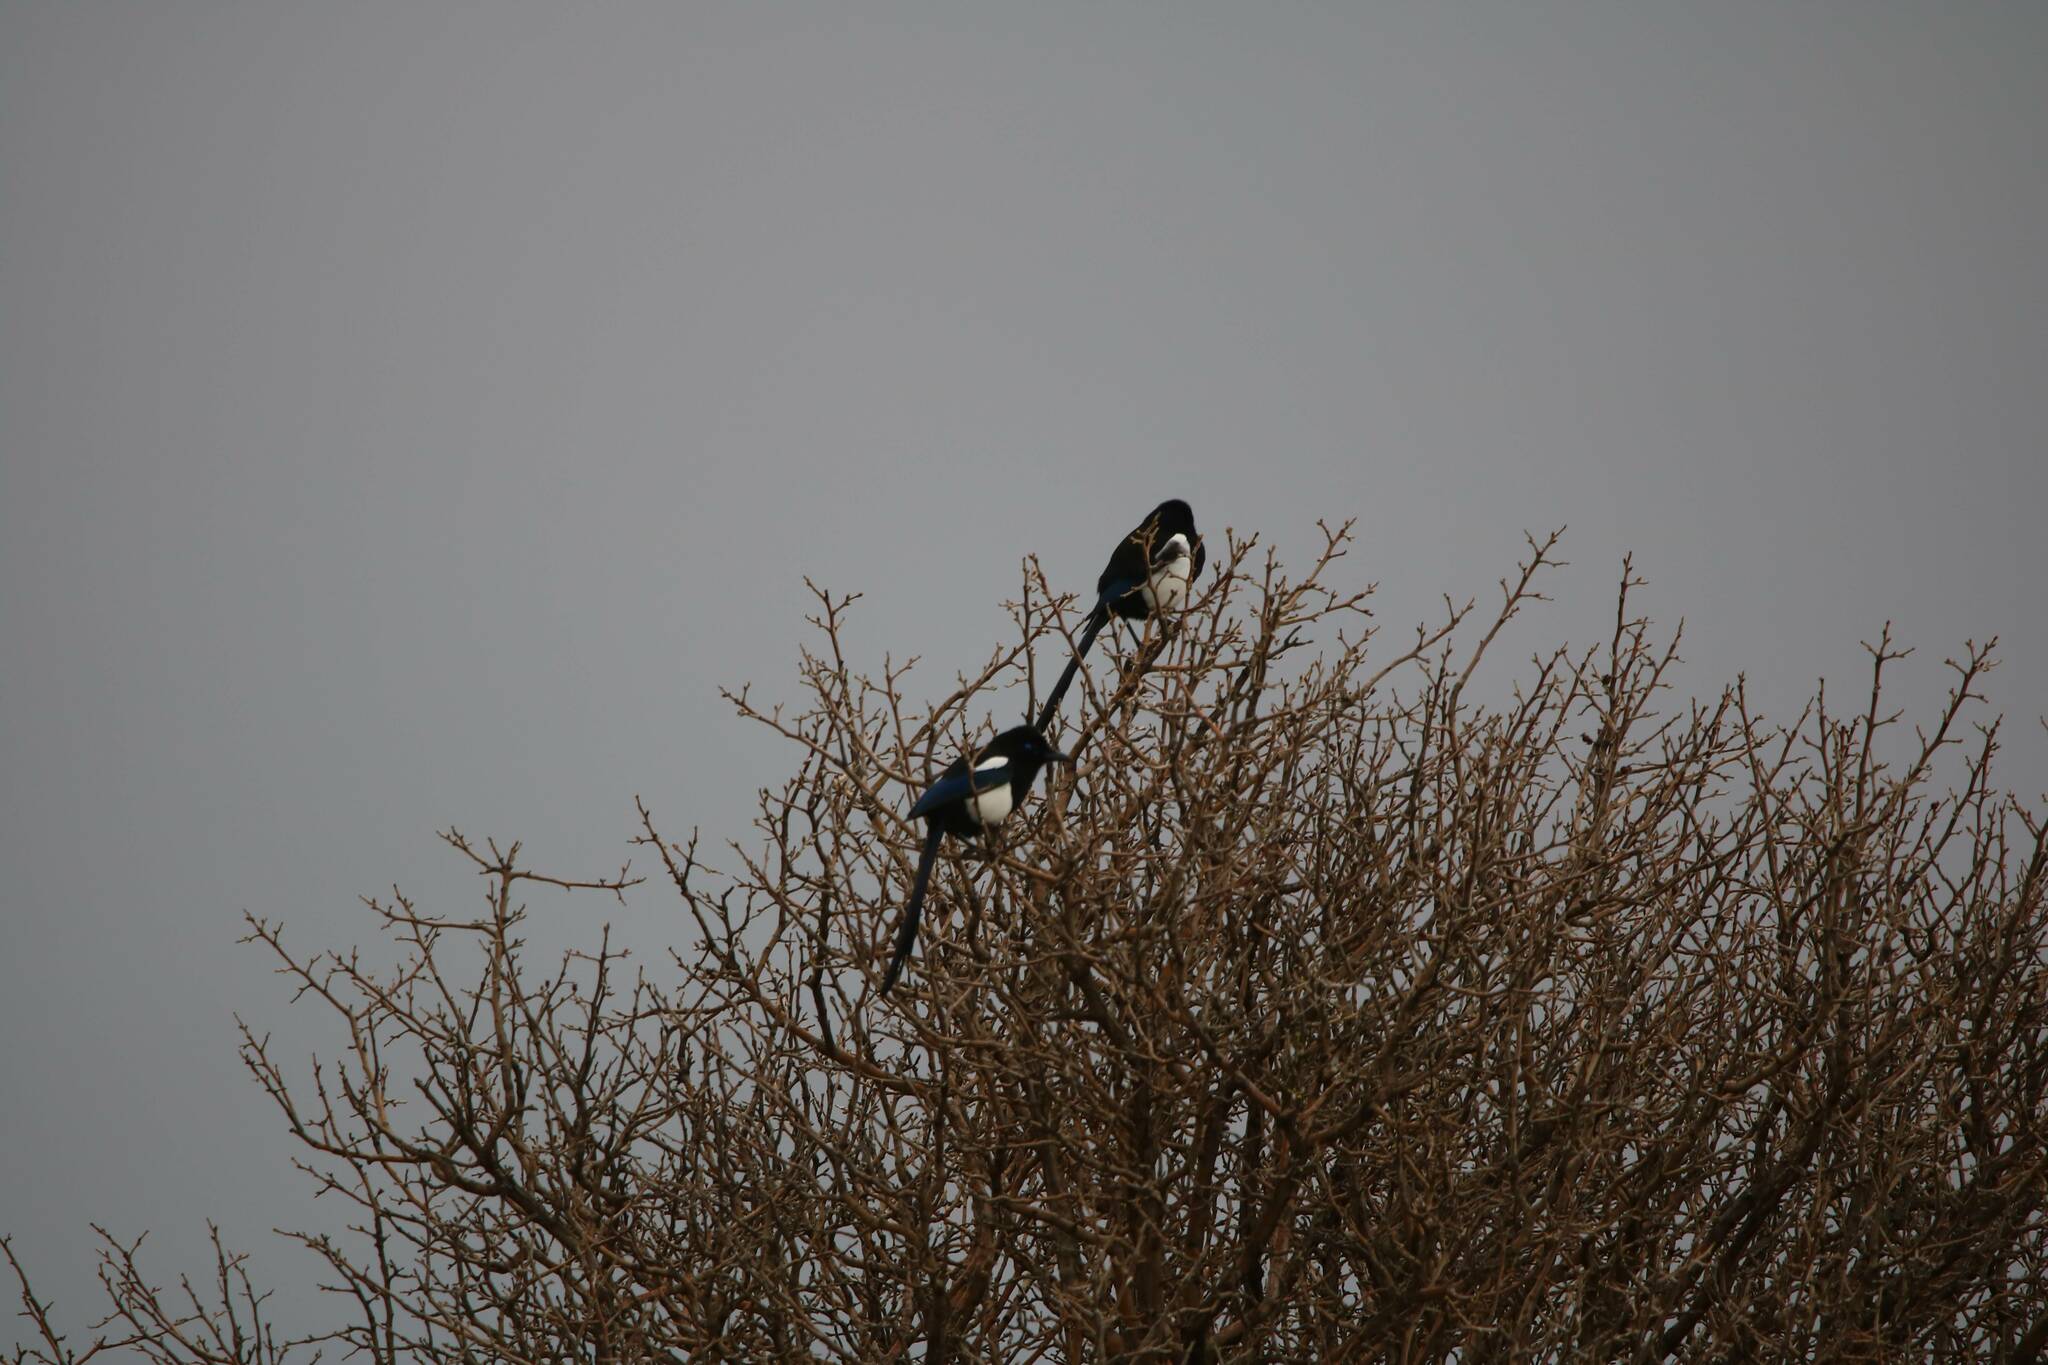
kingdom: Animalia
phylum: Chordata
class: Aves
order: Passeriformes
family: Corvidae
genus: Pica
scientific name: Pica mauritanica
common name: Maghreb magpie
